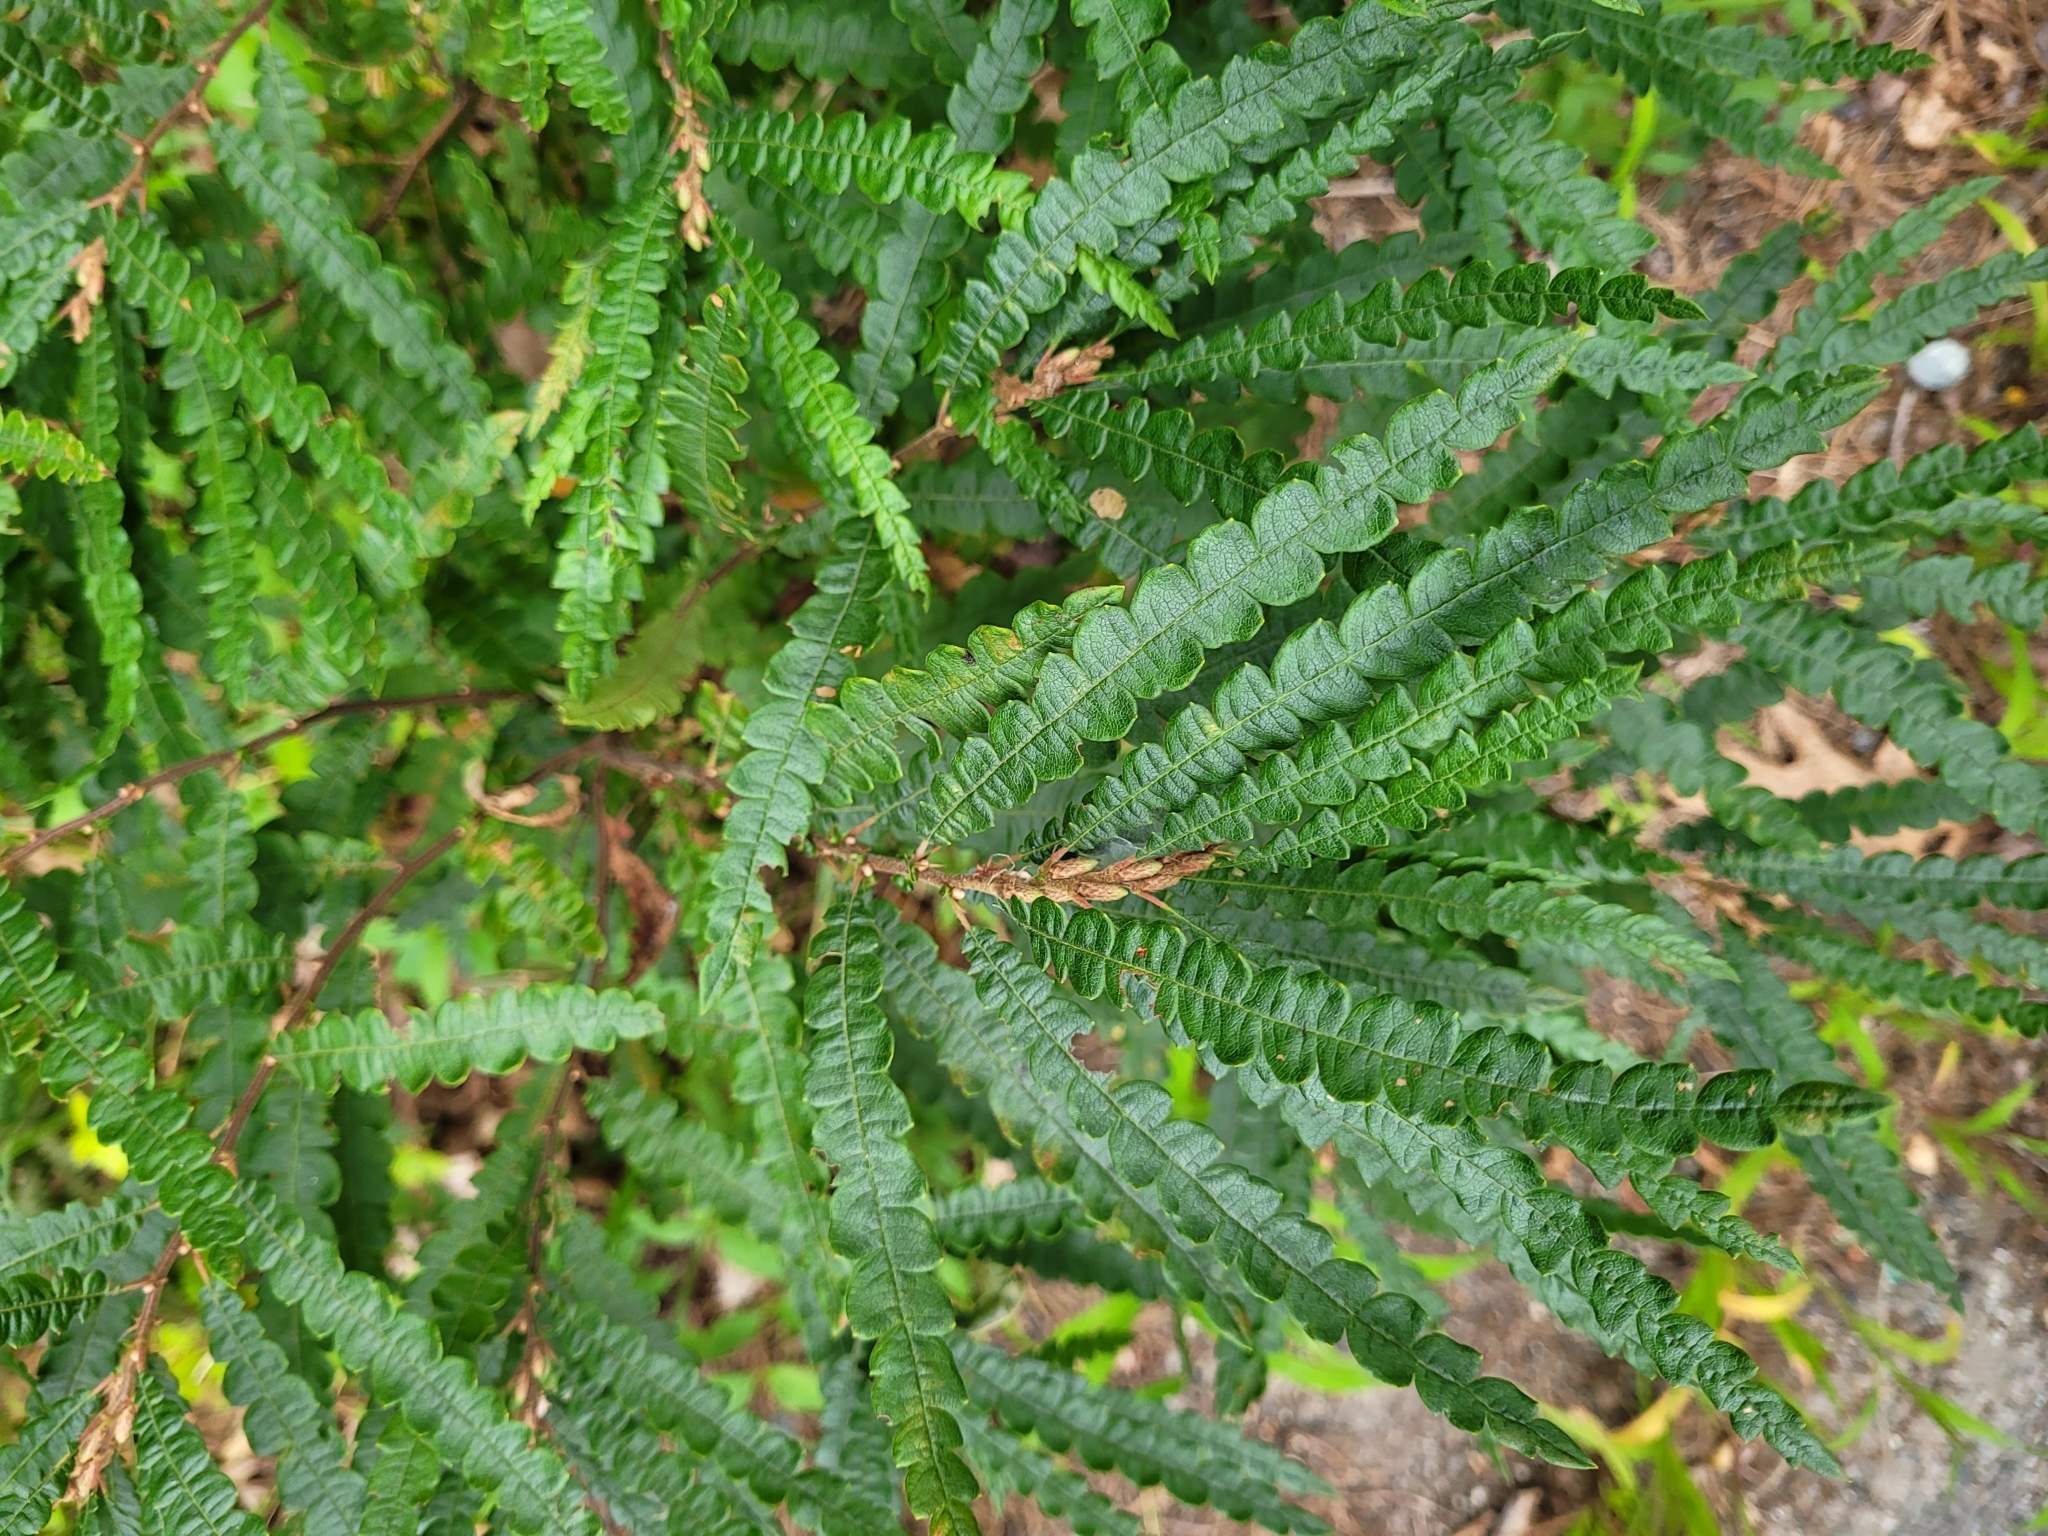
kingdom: Plantae
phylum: Tracheophyta
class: Magnoliopsida
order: Fagales
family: Myricaceae
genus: Comptonia
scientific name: Comptonia peregrina
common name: Sweet-fern
